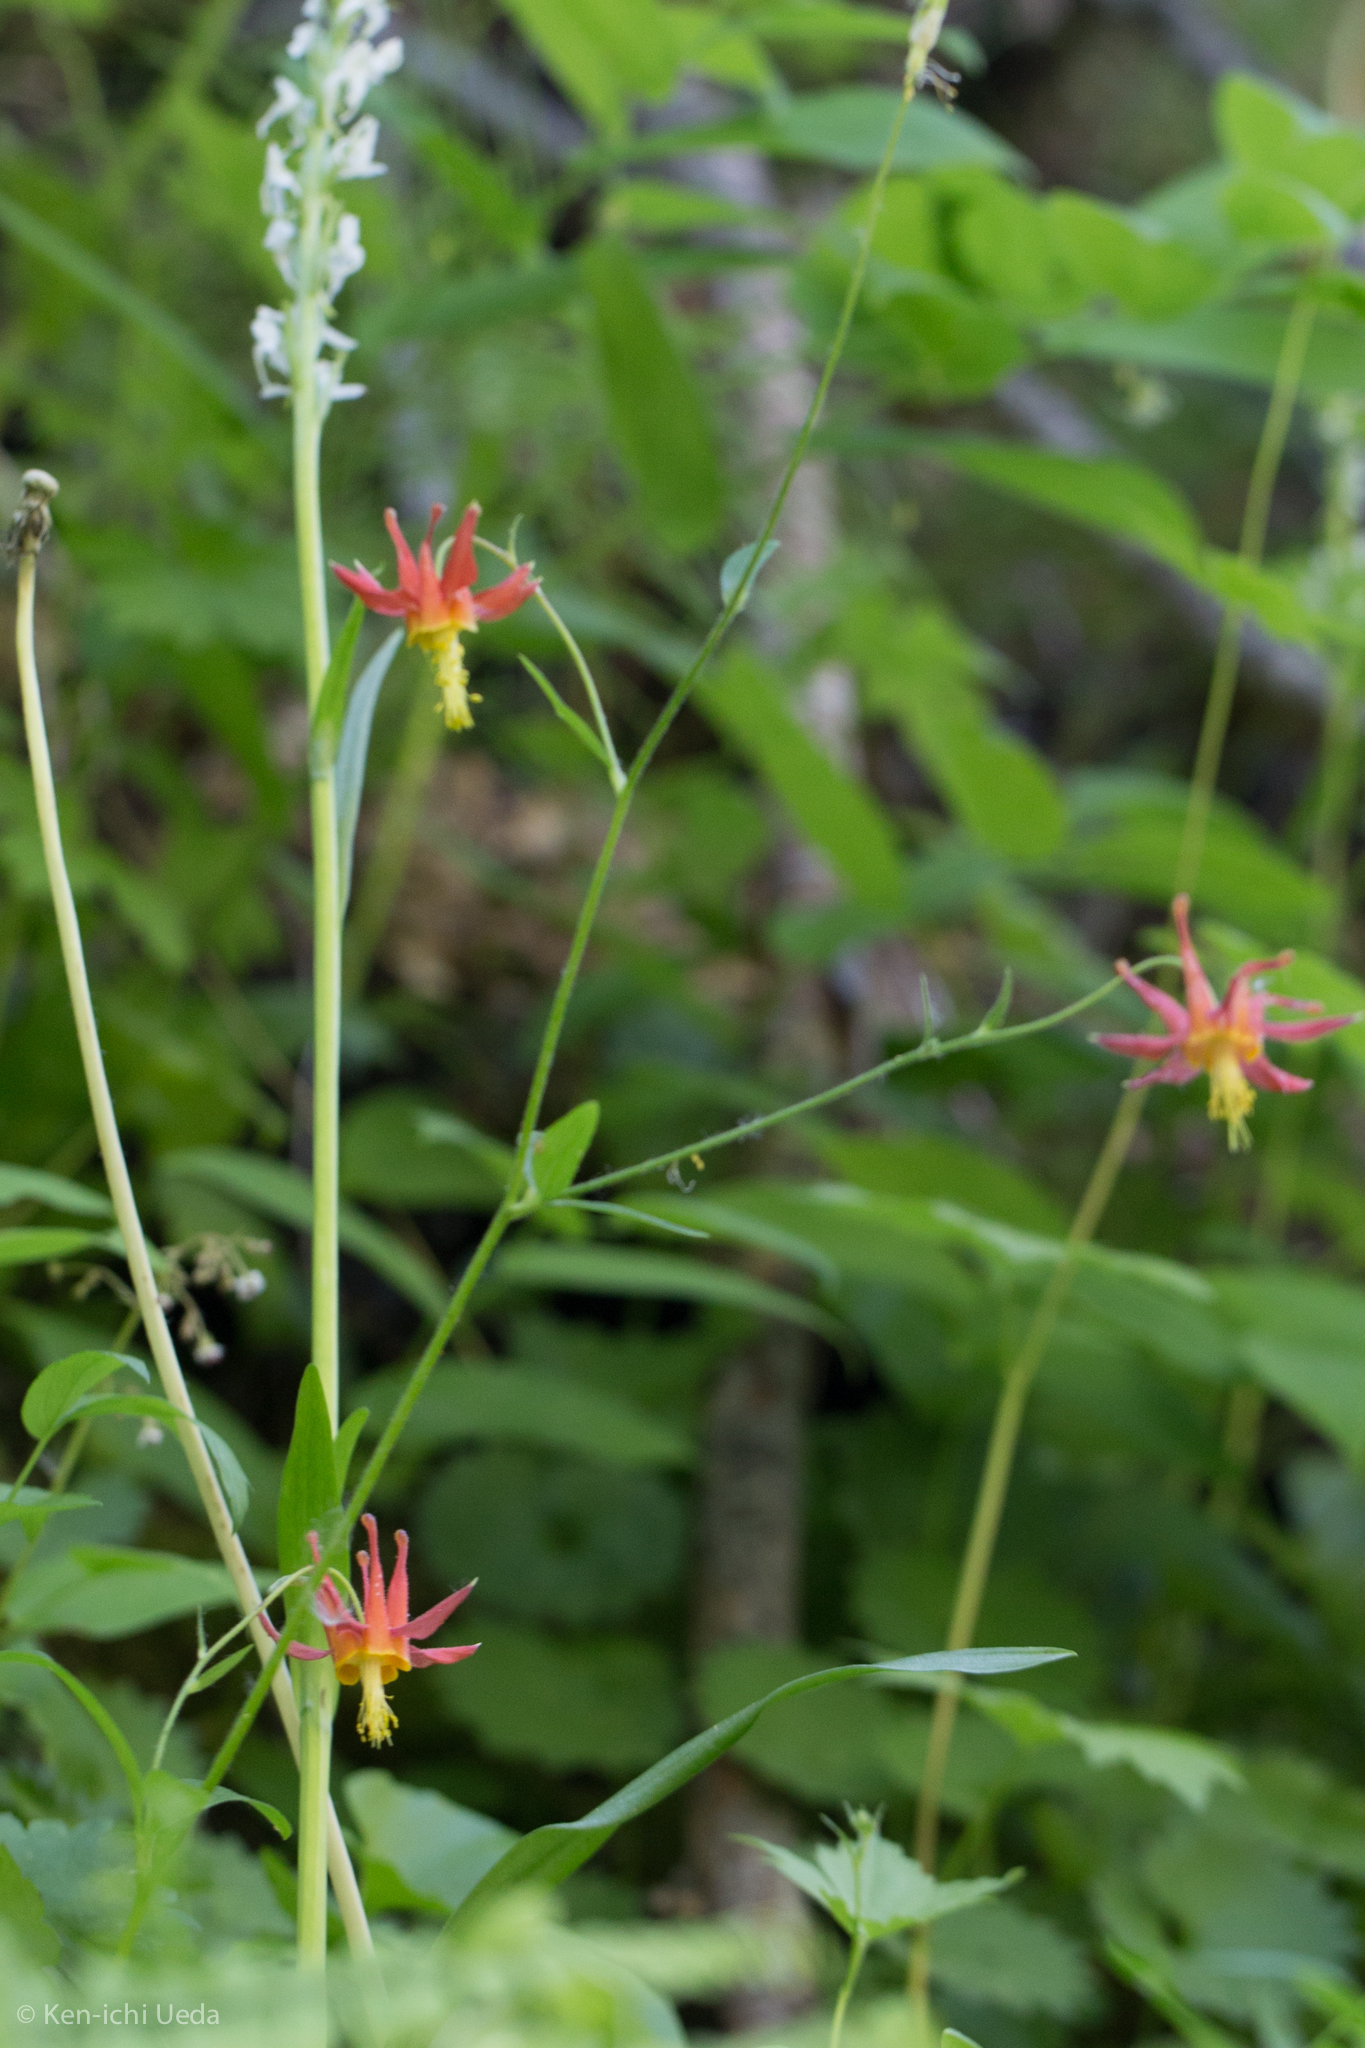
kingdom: Plantae
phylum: Tracheophyta
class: Magnoliopsida
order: Ranunculales
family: Ranunculaceae
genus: Aquilegia
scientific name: Aquilegia formosa
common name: Sitka columbine
